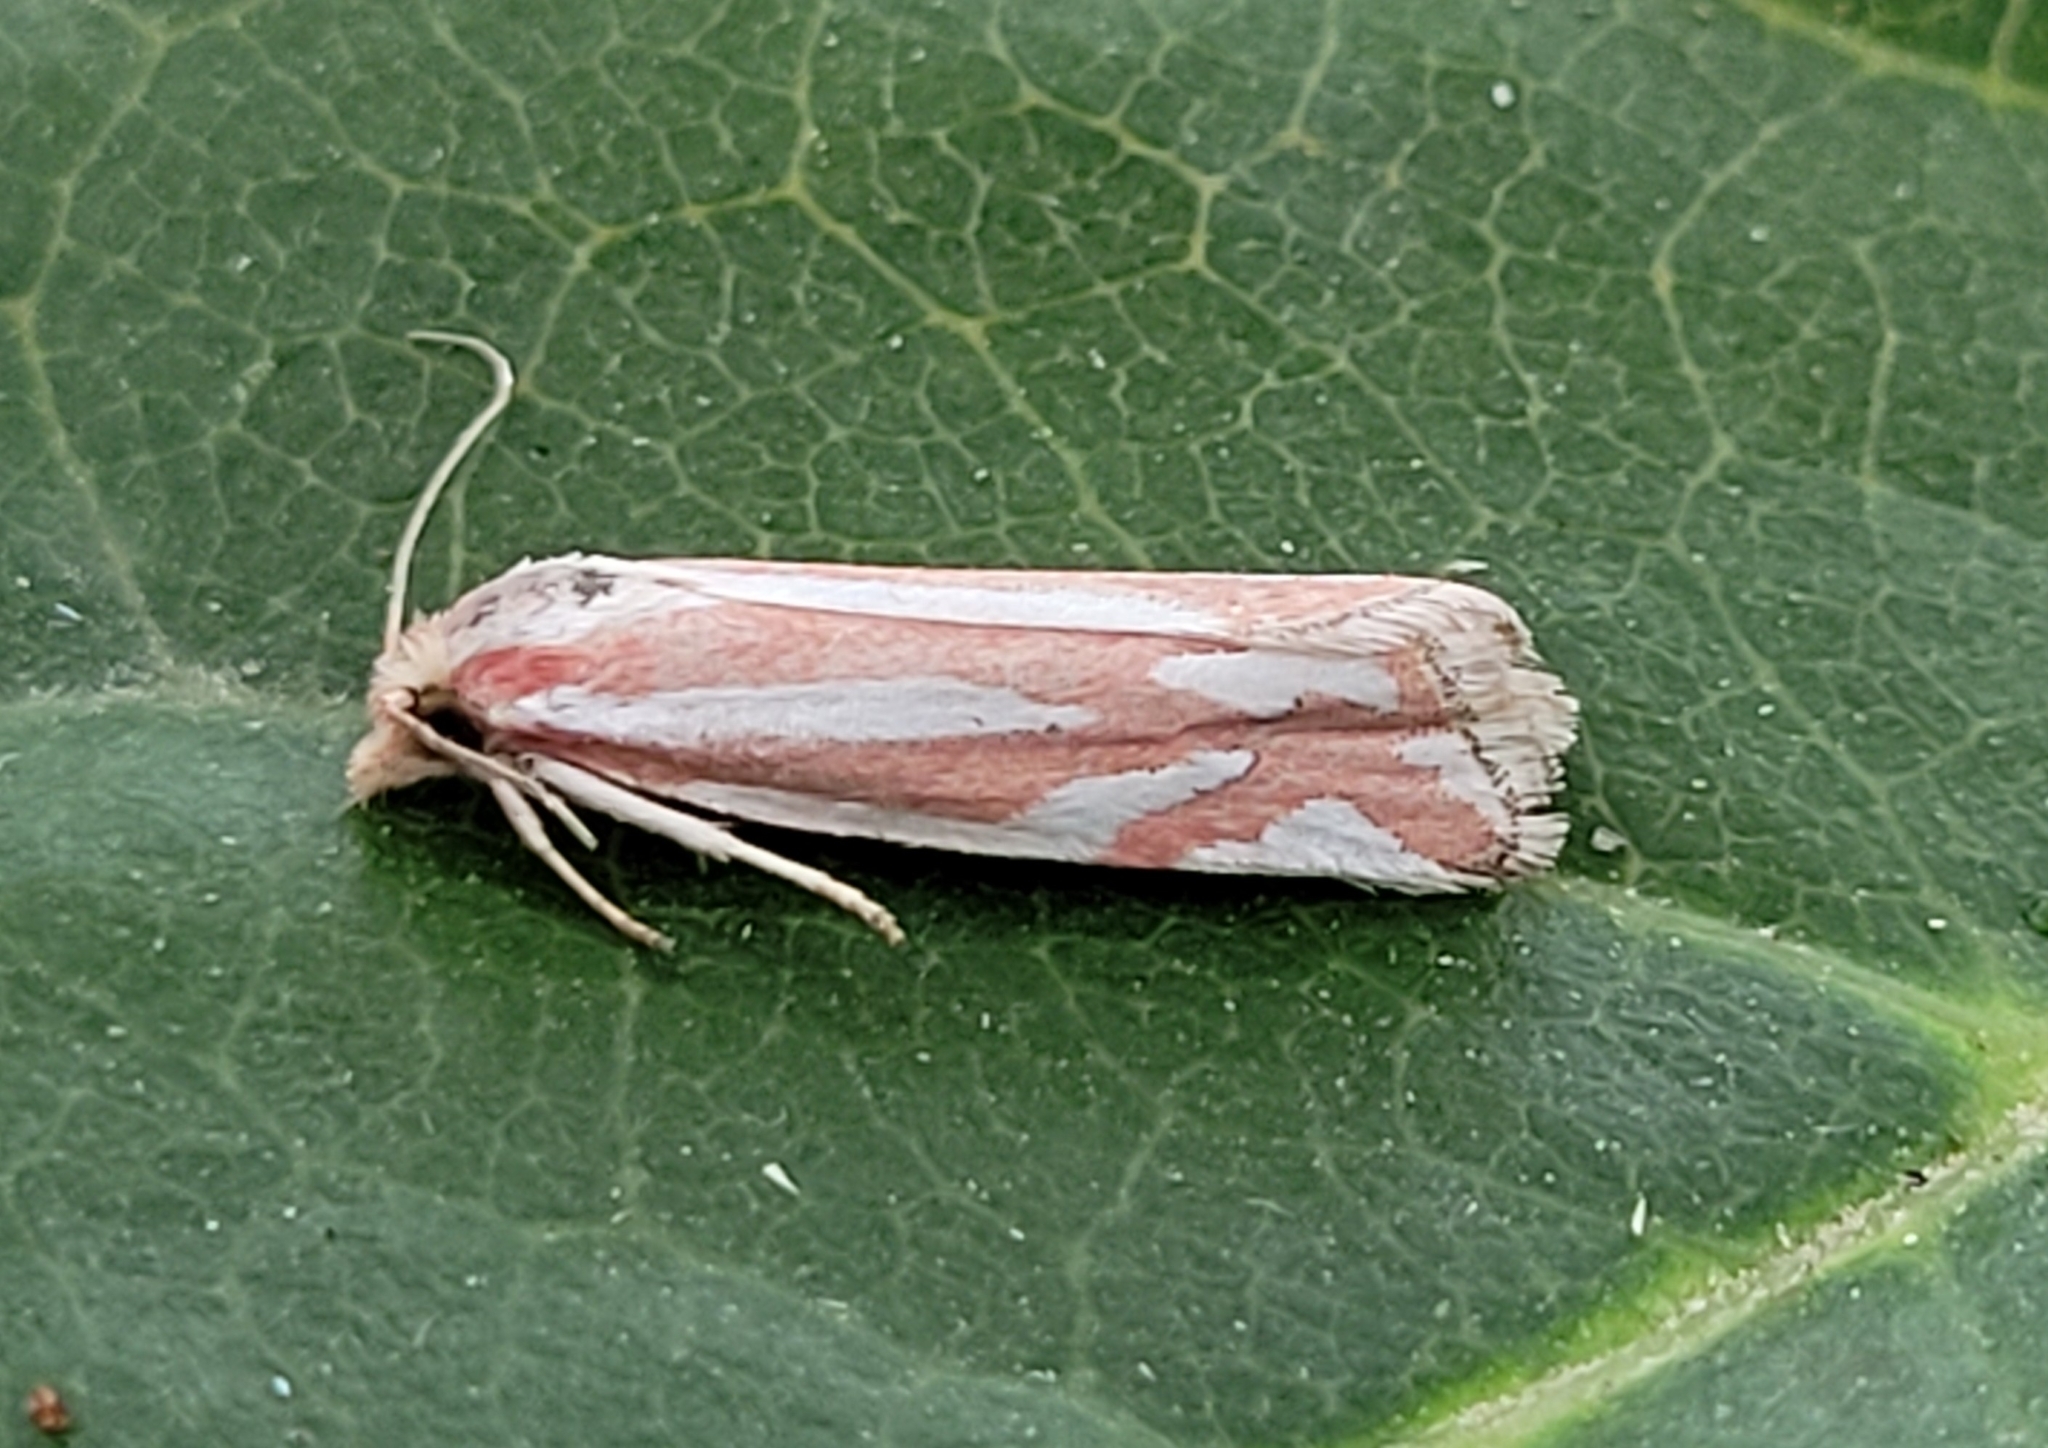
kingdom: Animalia
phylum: Arthropoda
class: Insecta
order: Lepidoptera
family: Tortricidae
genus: Pelochrista
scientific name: Pelochrista fernaldana
